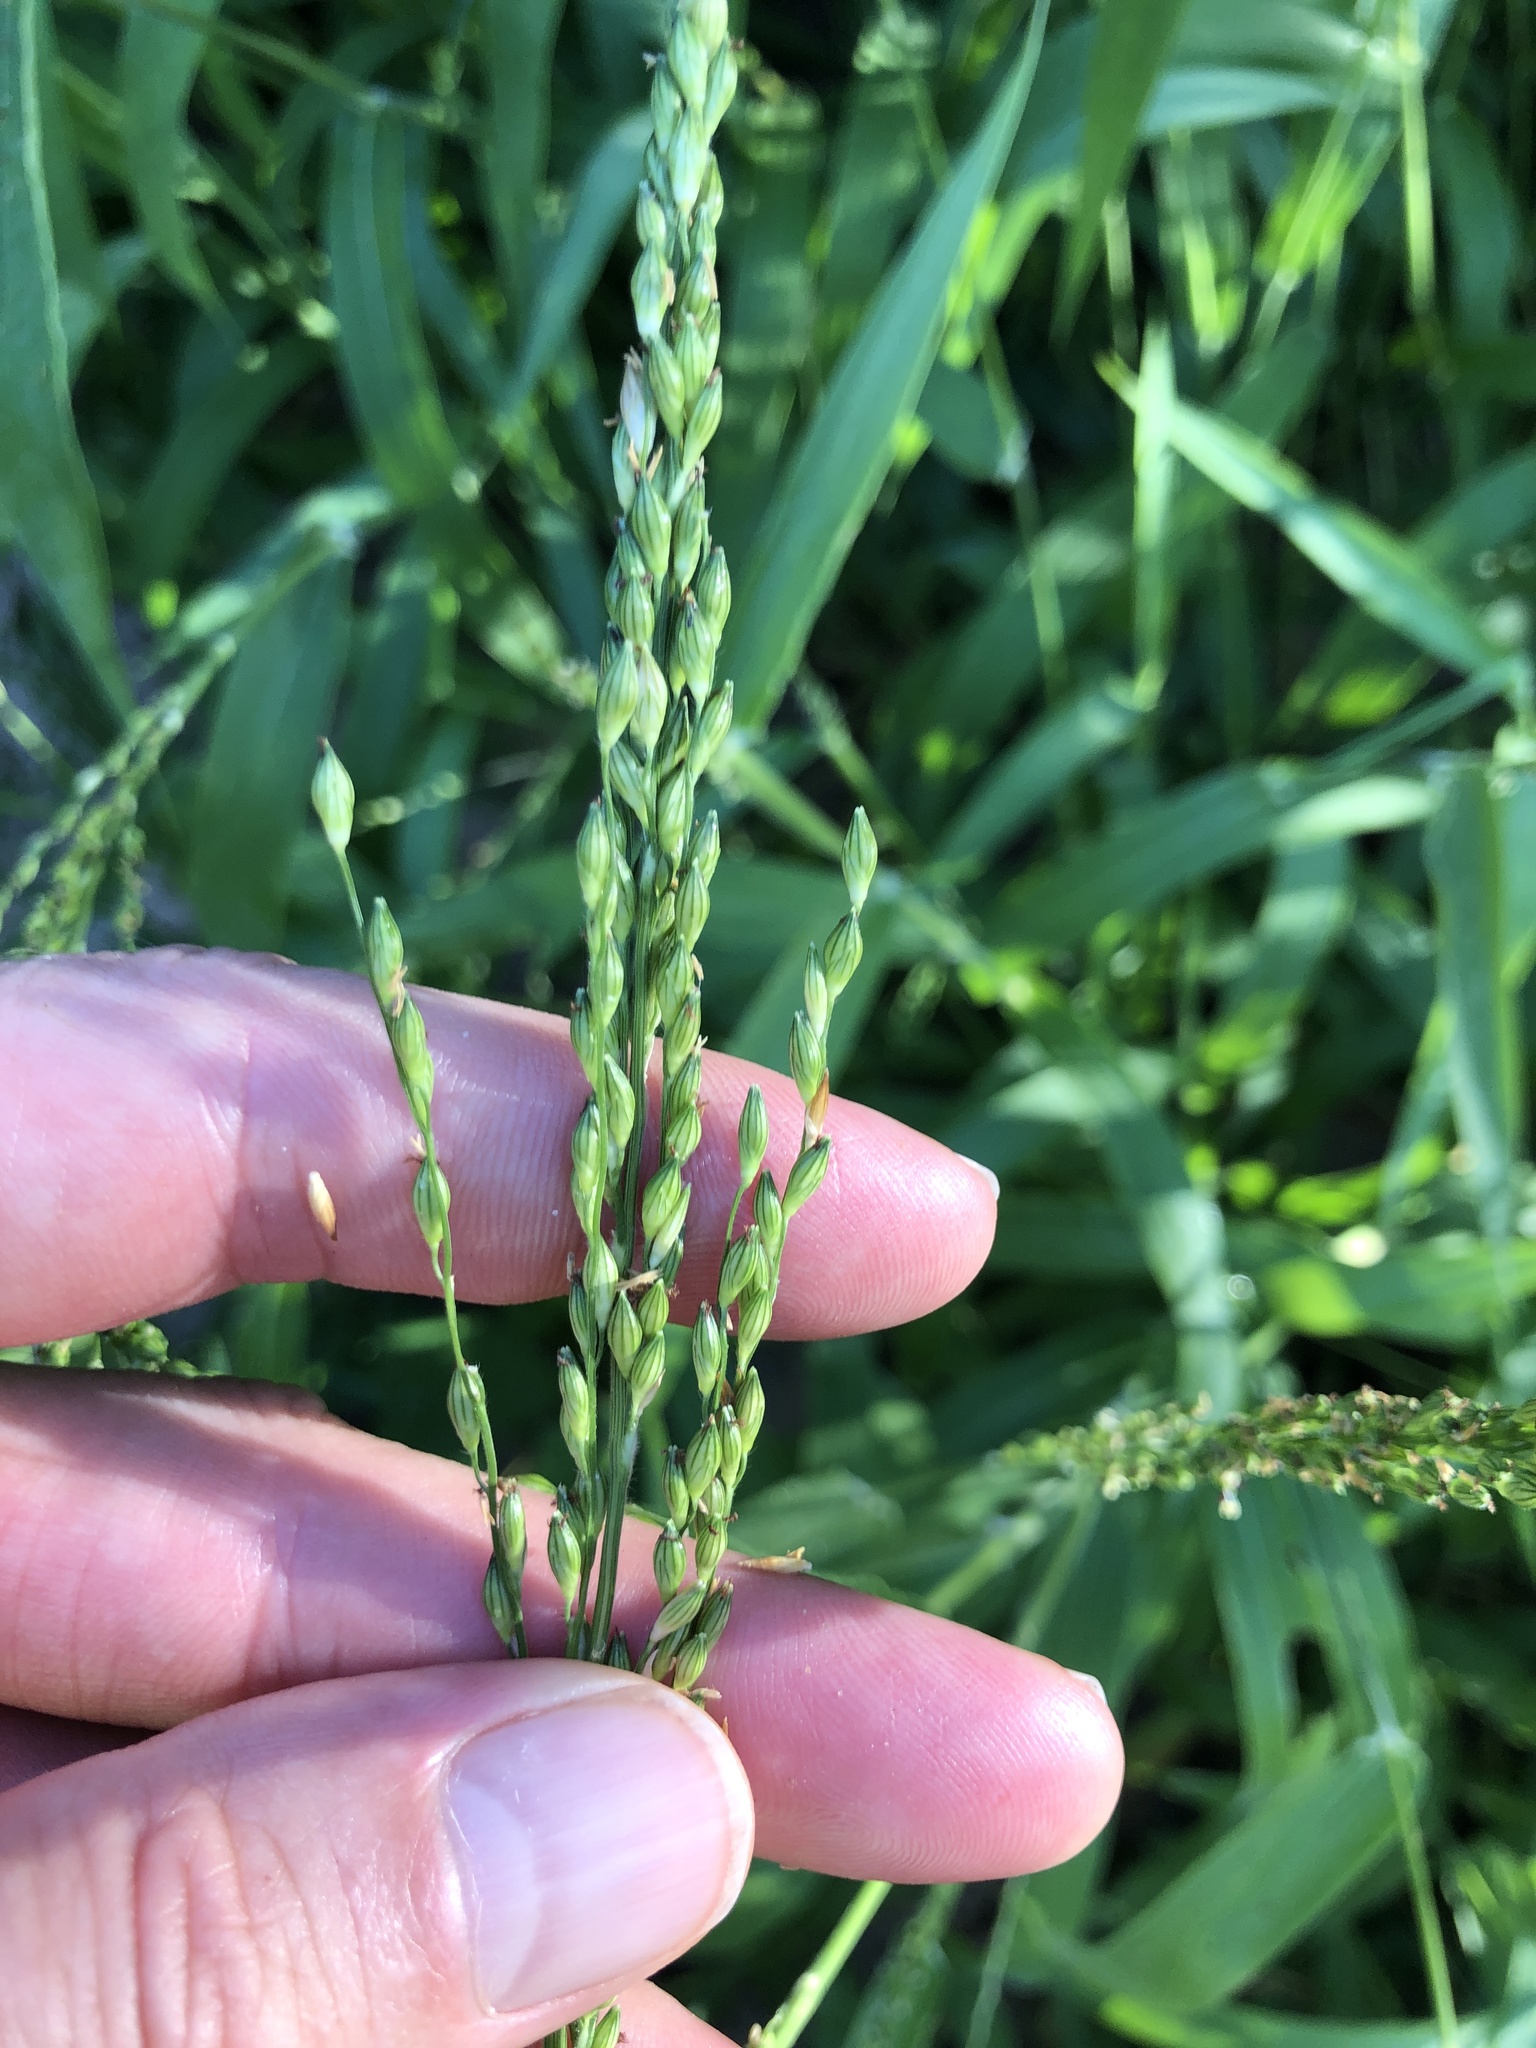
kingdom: Plantae
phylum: Tracheophyta
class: Liliopsida
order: Poales
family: Poaceae
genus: Urochloa
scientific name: Urochloa texana
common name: Texas millet
